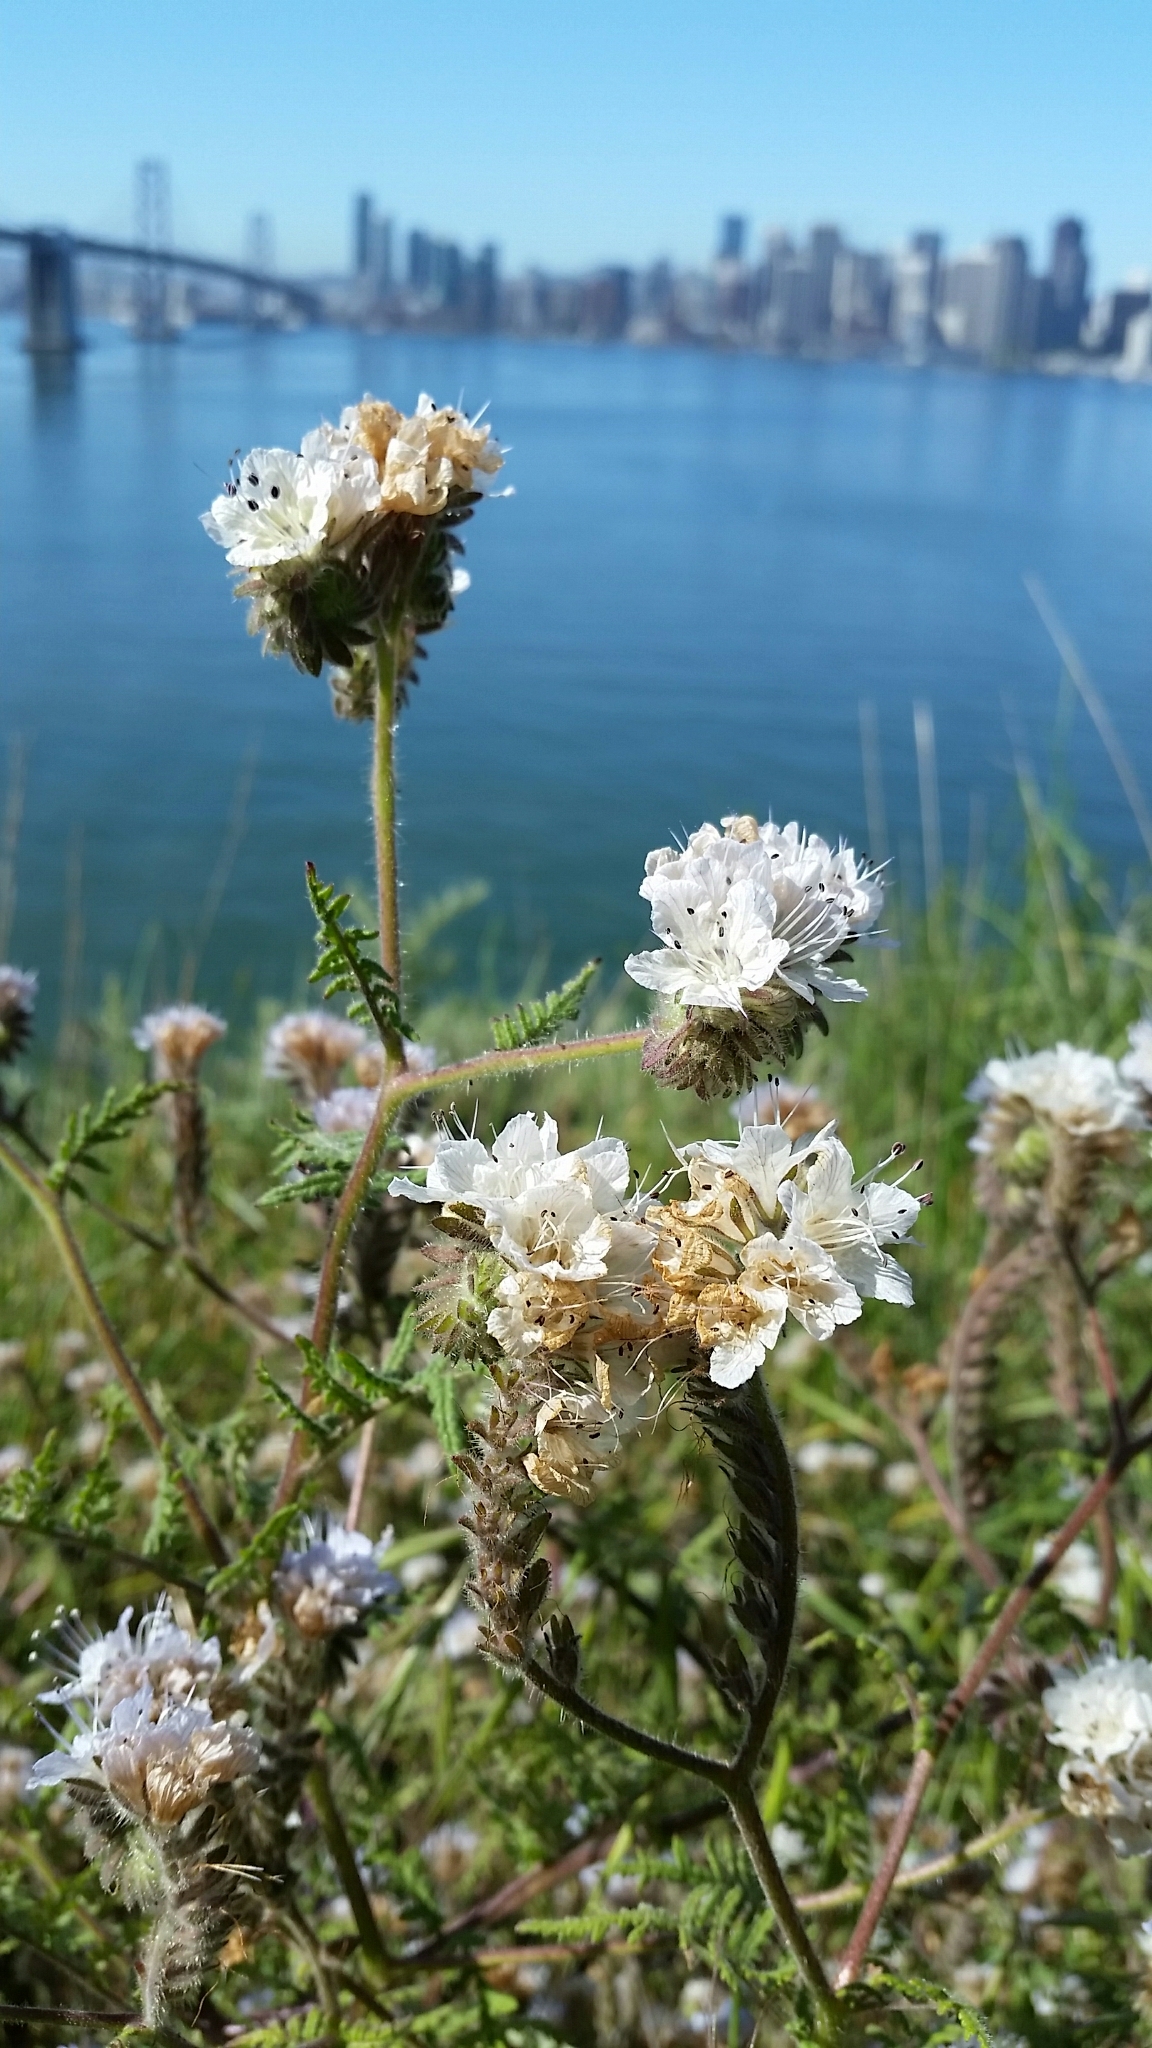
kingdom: Plantae
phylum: Tracheophyta
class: Magnoliopsida
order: Boraginales
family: Hydrophyllaceae
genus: Phacelia
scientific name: Phacelia distans
